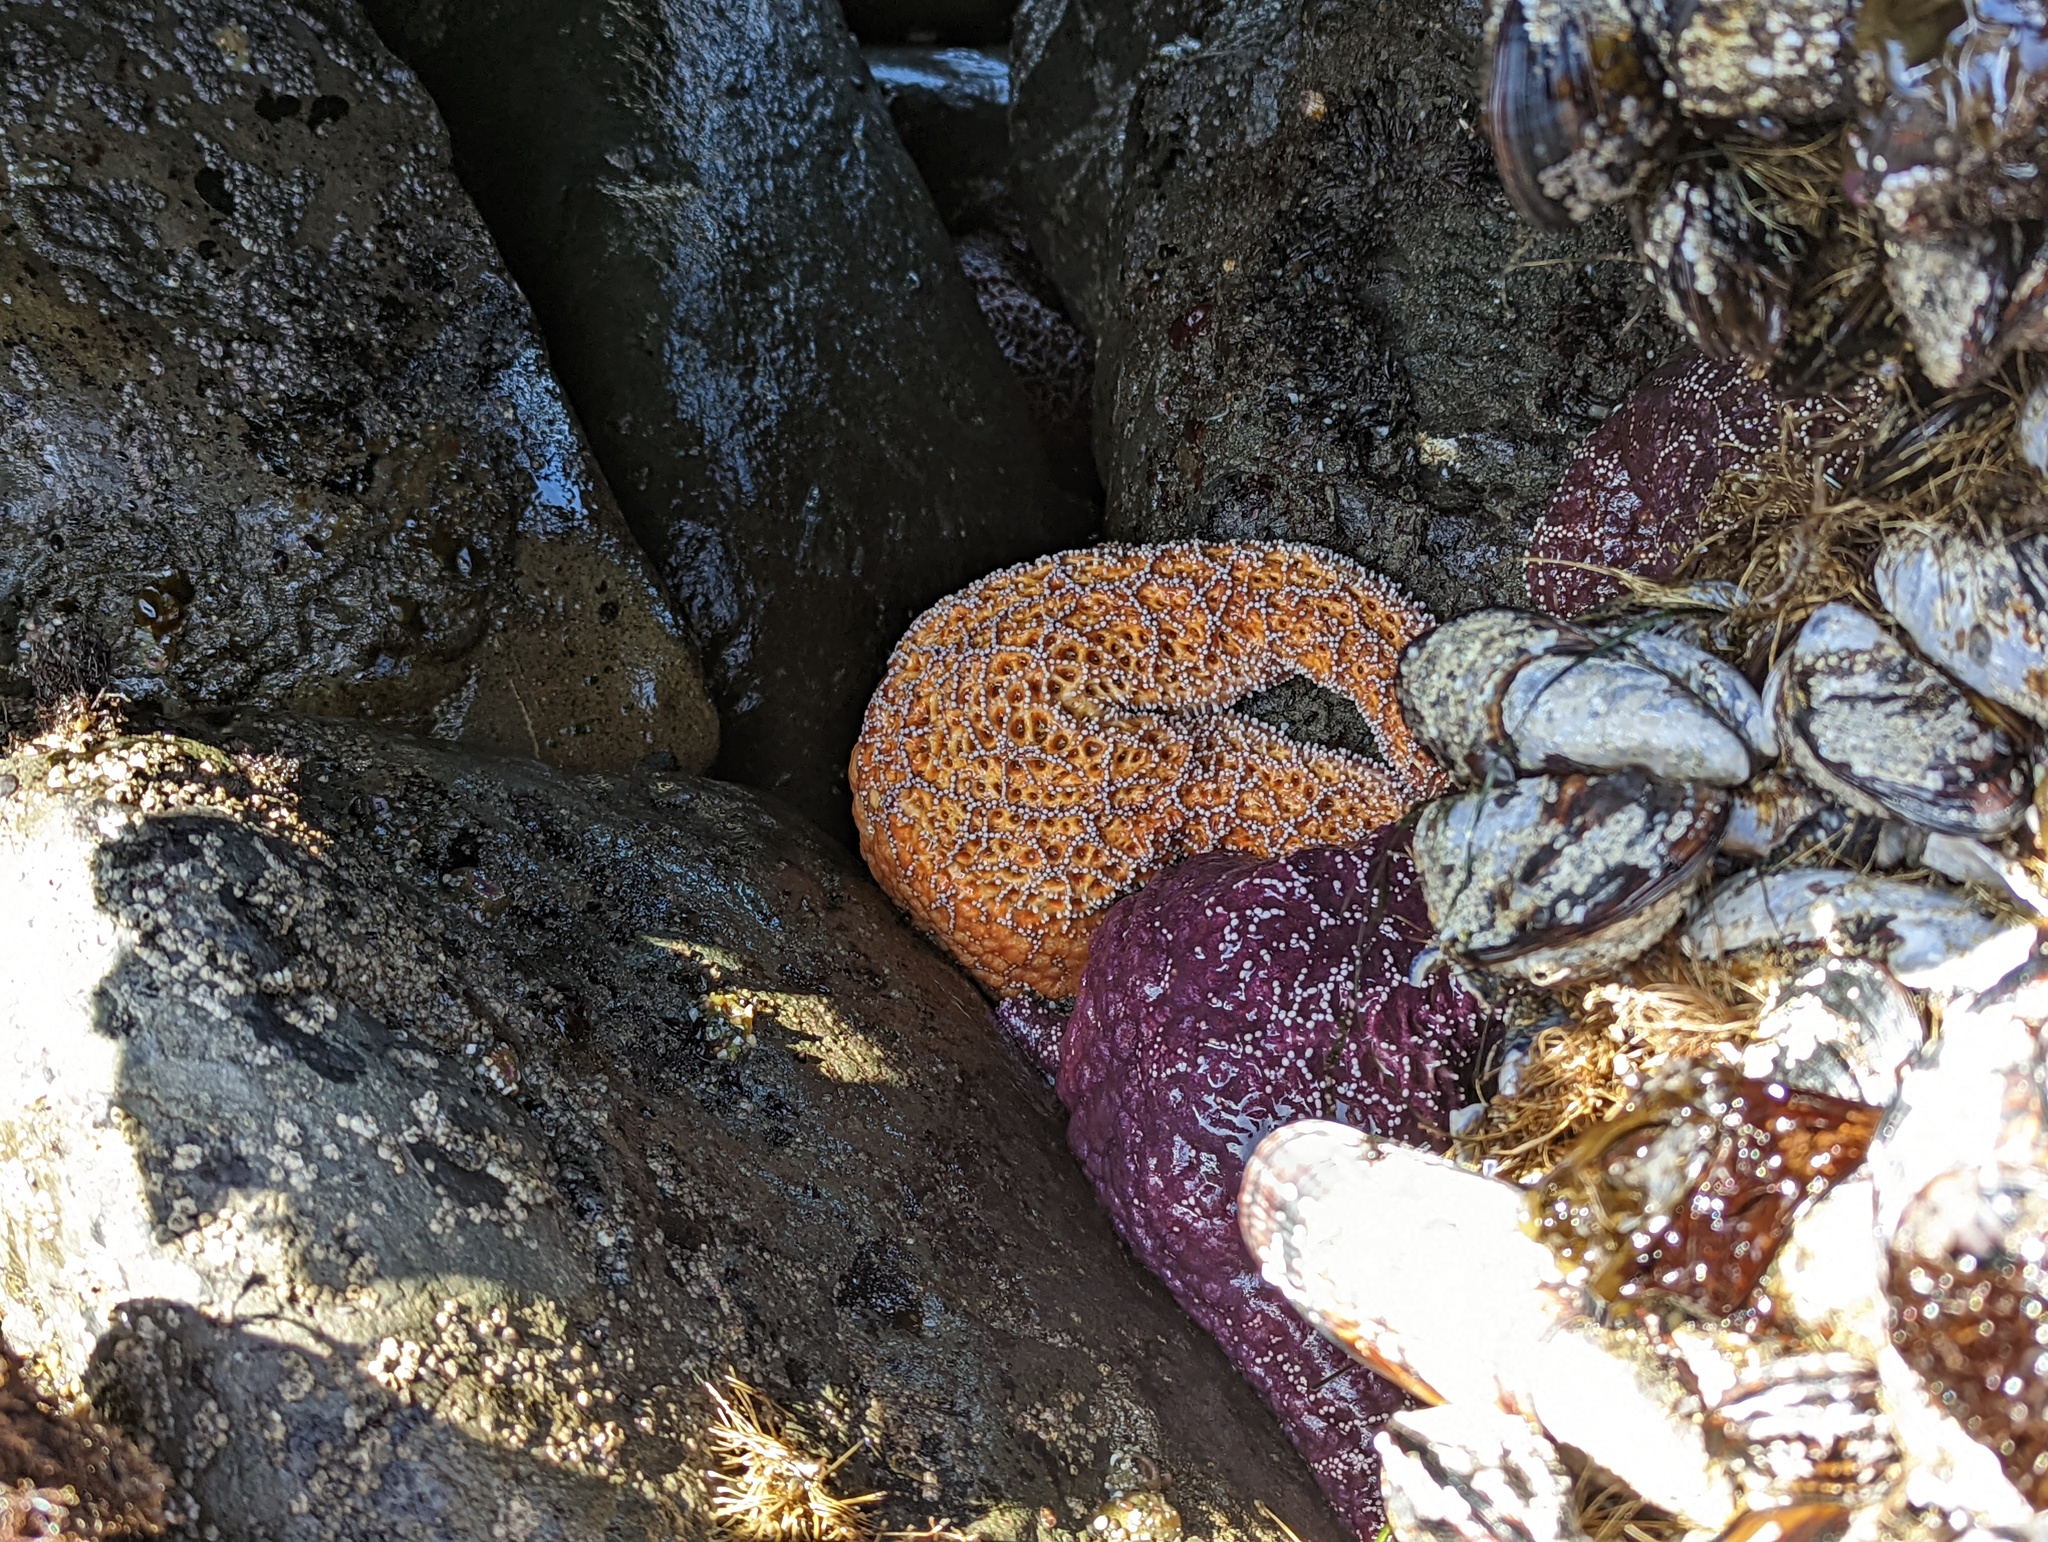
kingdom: Animalia
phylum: Echinodermata
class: Asteroidea
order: Forcipulatida
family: Asteriidae
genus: Pisaster
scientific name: Pisaster ochraceus
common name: Ochre stars
